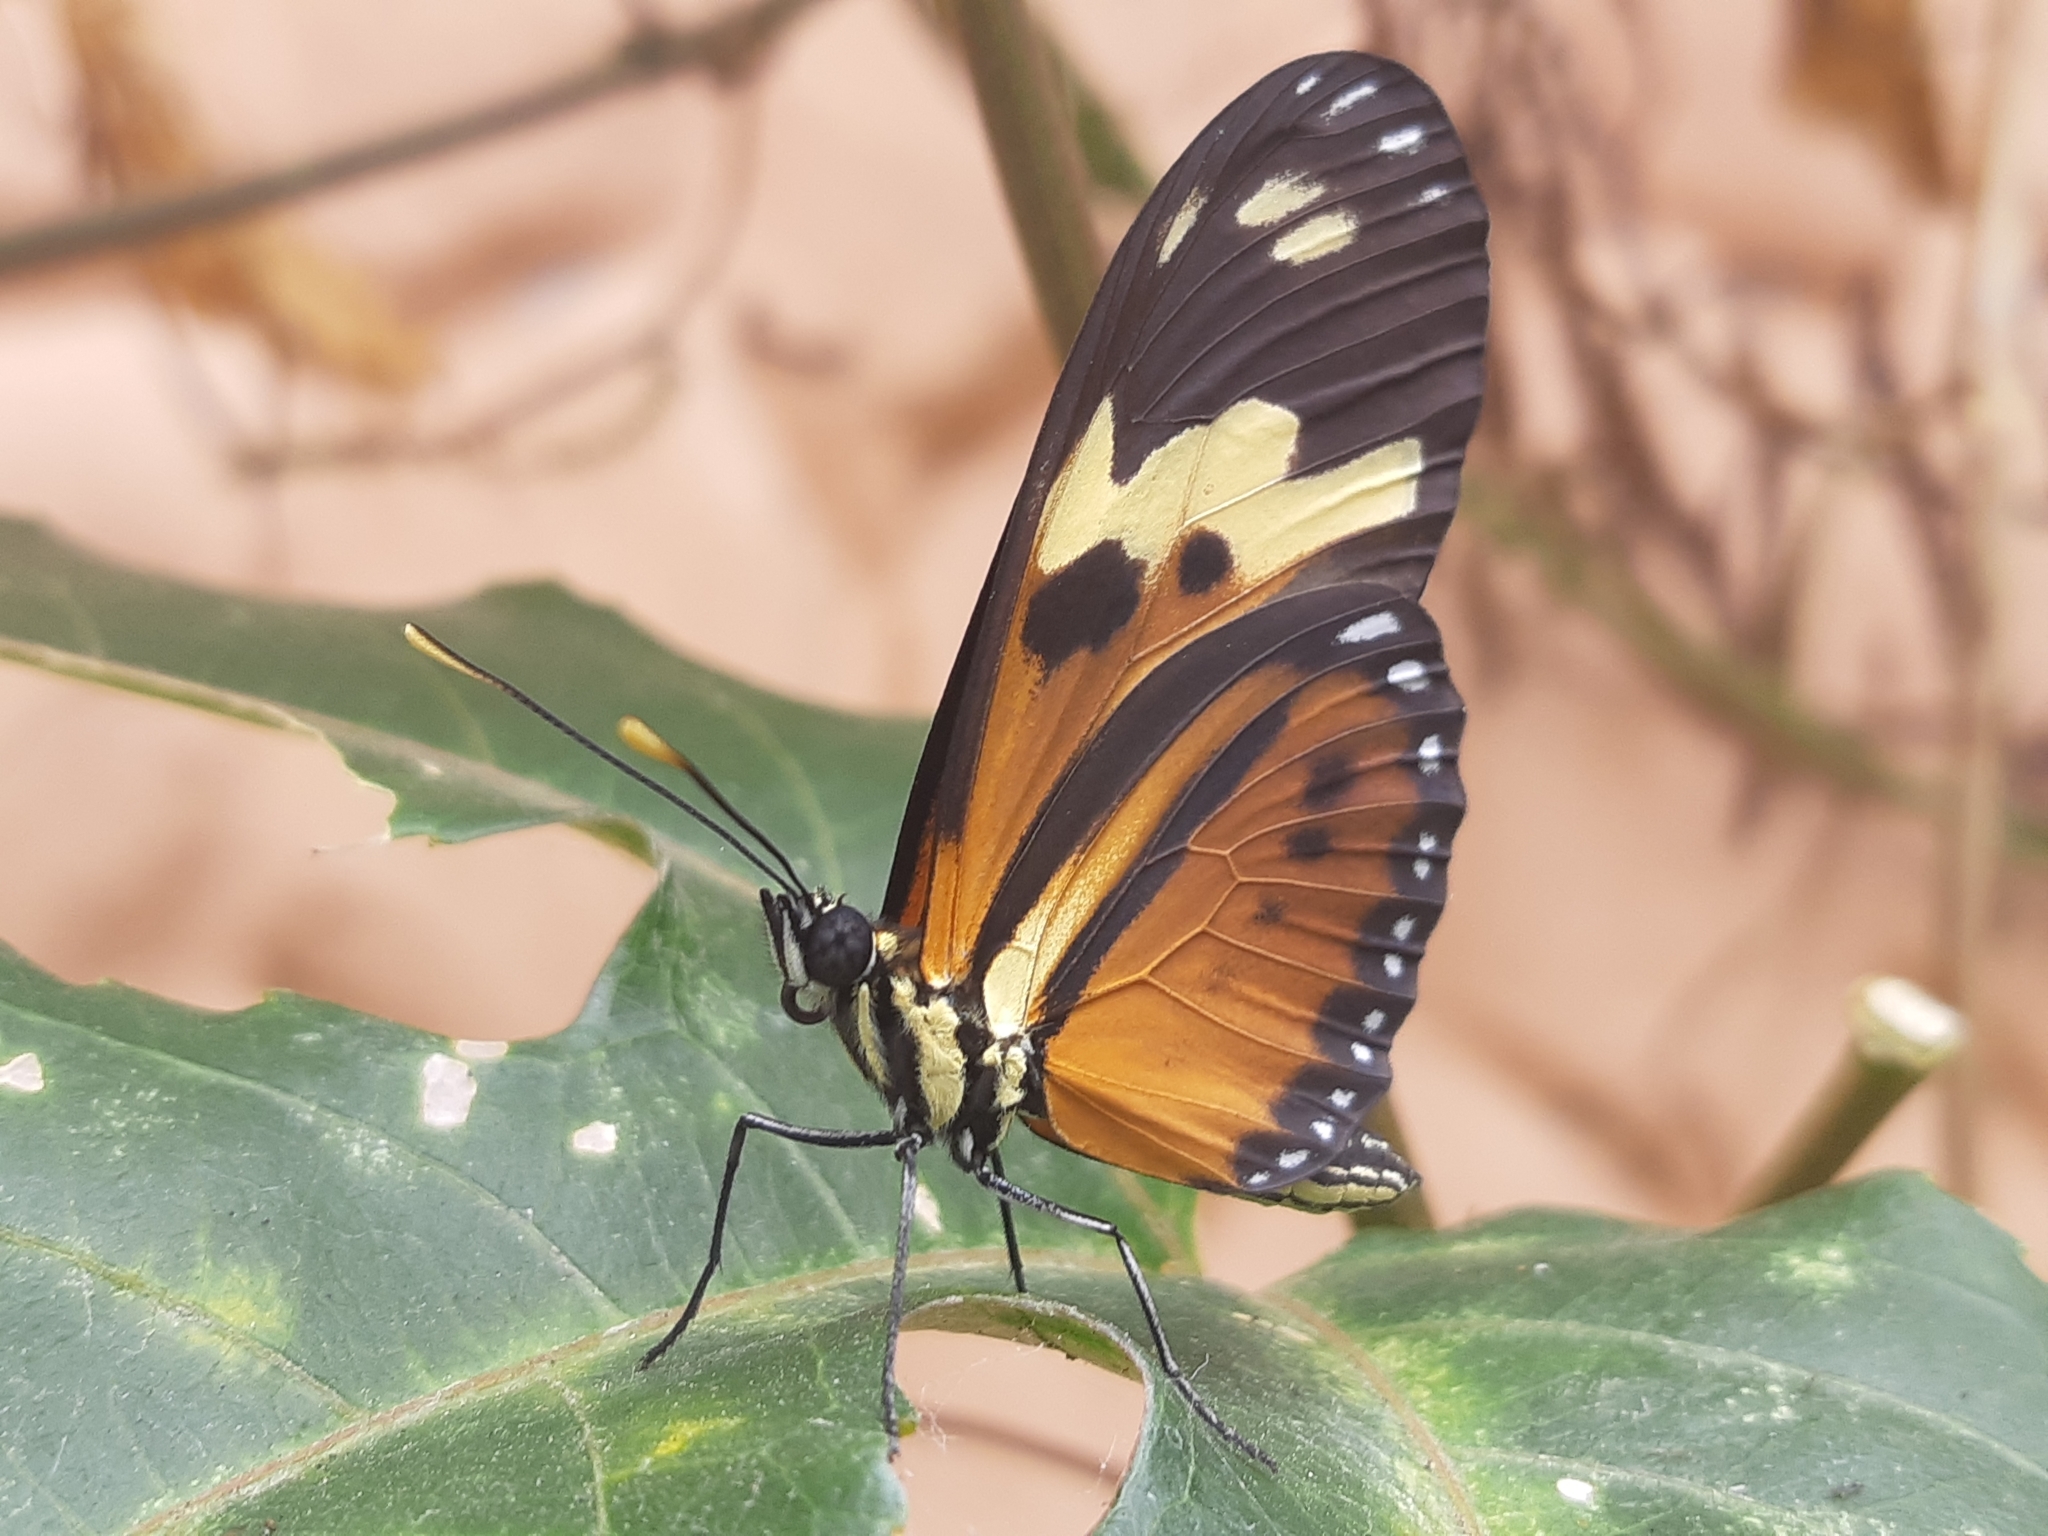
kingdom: Animalia
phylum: Arthropoda
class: Insecta
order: Lepidoptera
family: Nymphalidae
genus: Eueides
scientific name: Eueides isabella
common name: Isabella's longwing
